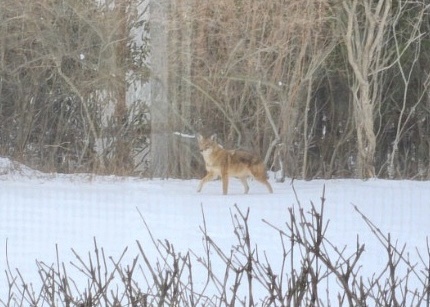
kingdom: Animalia
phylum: Chordata
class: Mammalia
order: Carnivora
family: Canidae
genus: Canis
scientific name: Canis latrans
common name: Coyote
